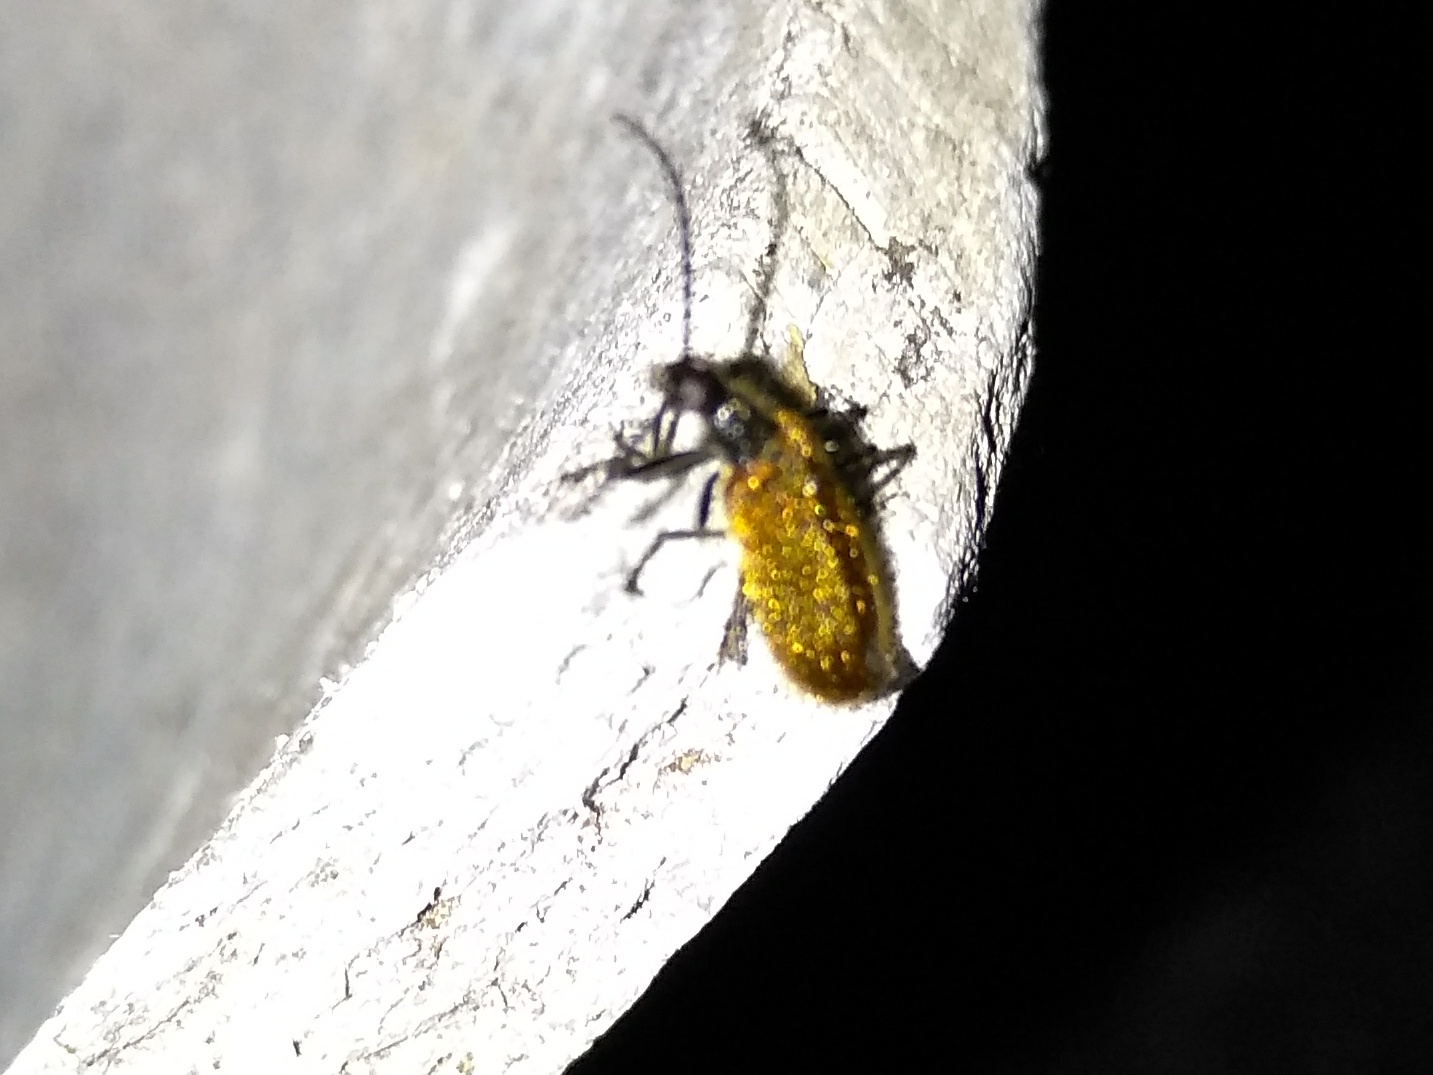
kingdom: Animalia
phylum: Arthropoda
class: Insecta
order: Coleoptera
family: Tenebrionidae
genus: Lagria
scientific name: Lagria hirta
